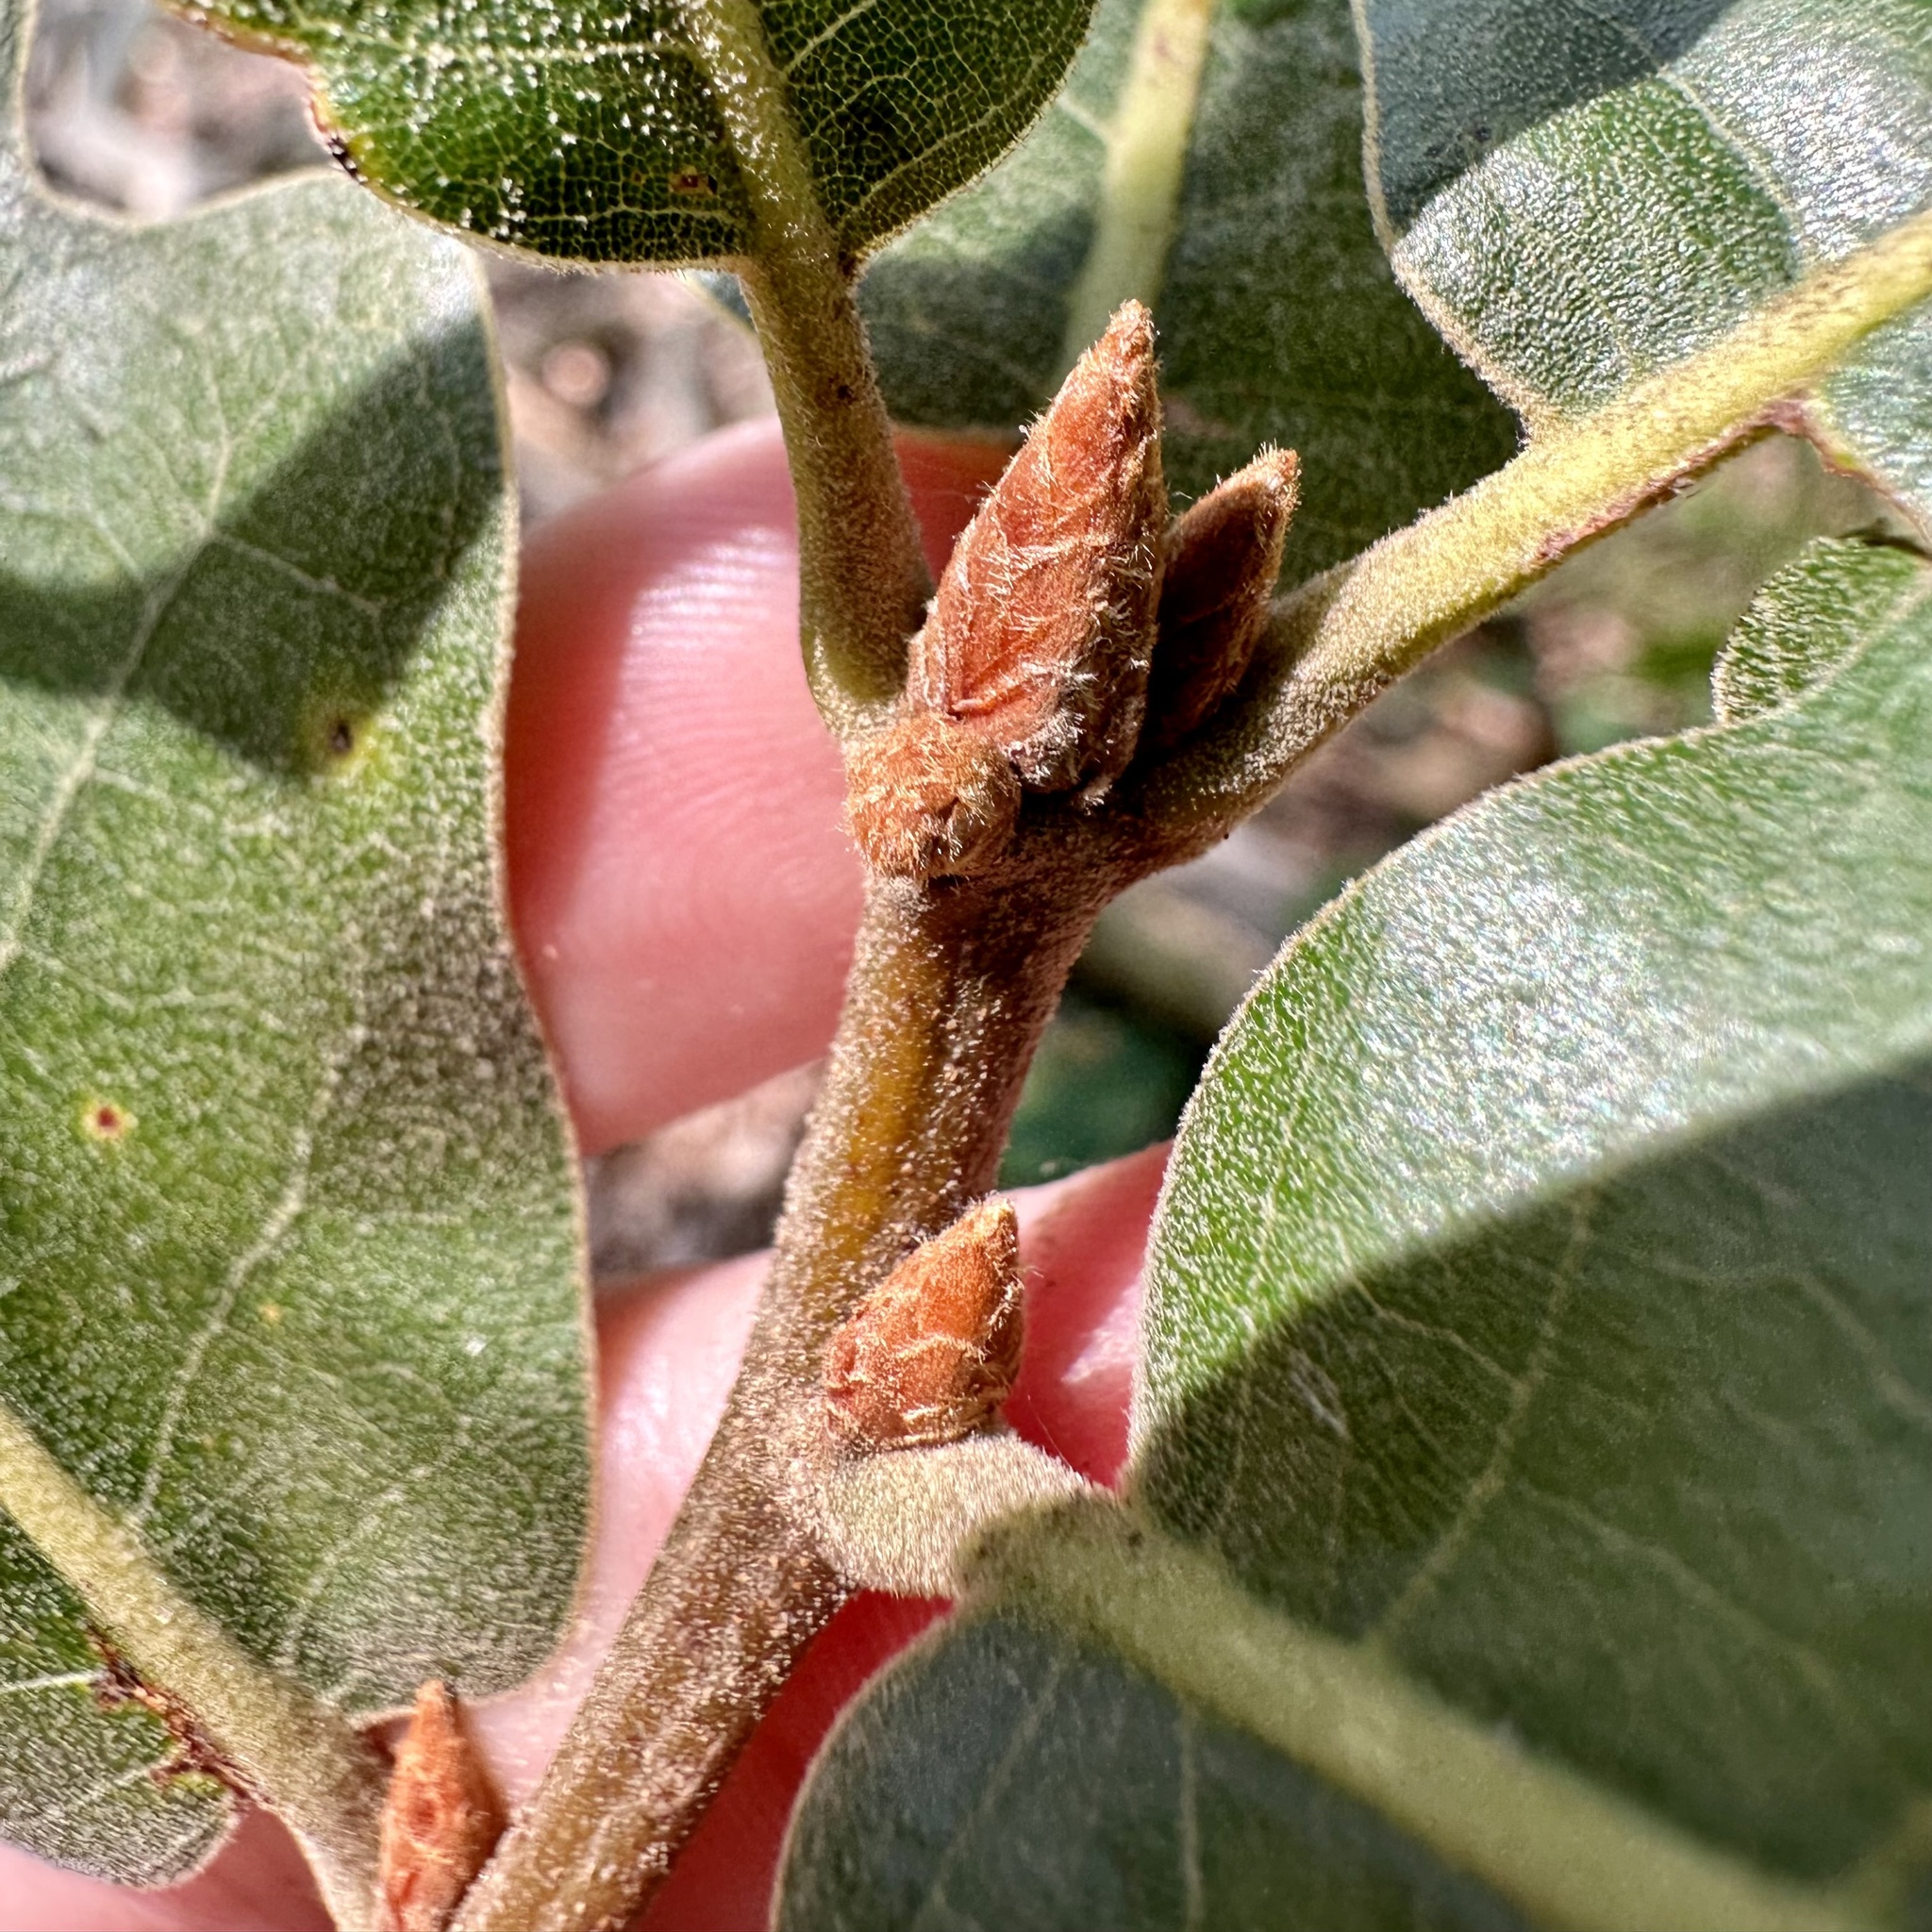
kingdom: Plantae
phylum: Tracheophyta
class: Magnoliopsida
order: Fagales
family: Fagaceae
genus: Quercus
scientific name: Quercus marilandica
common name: Blackjack oak
